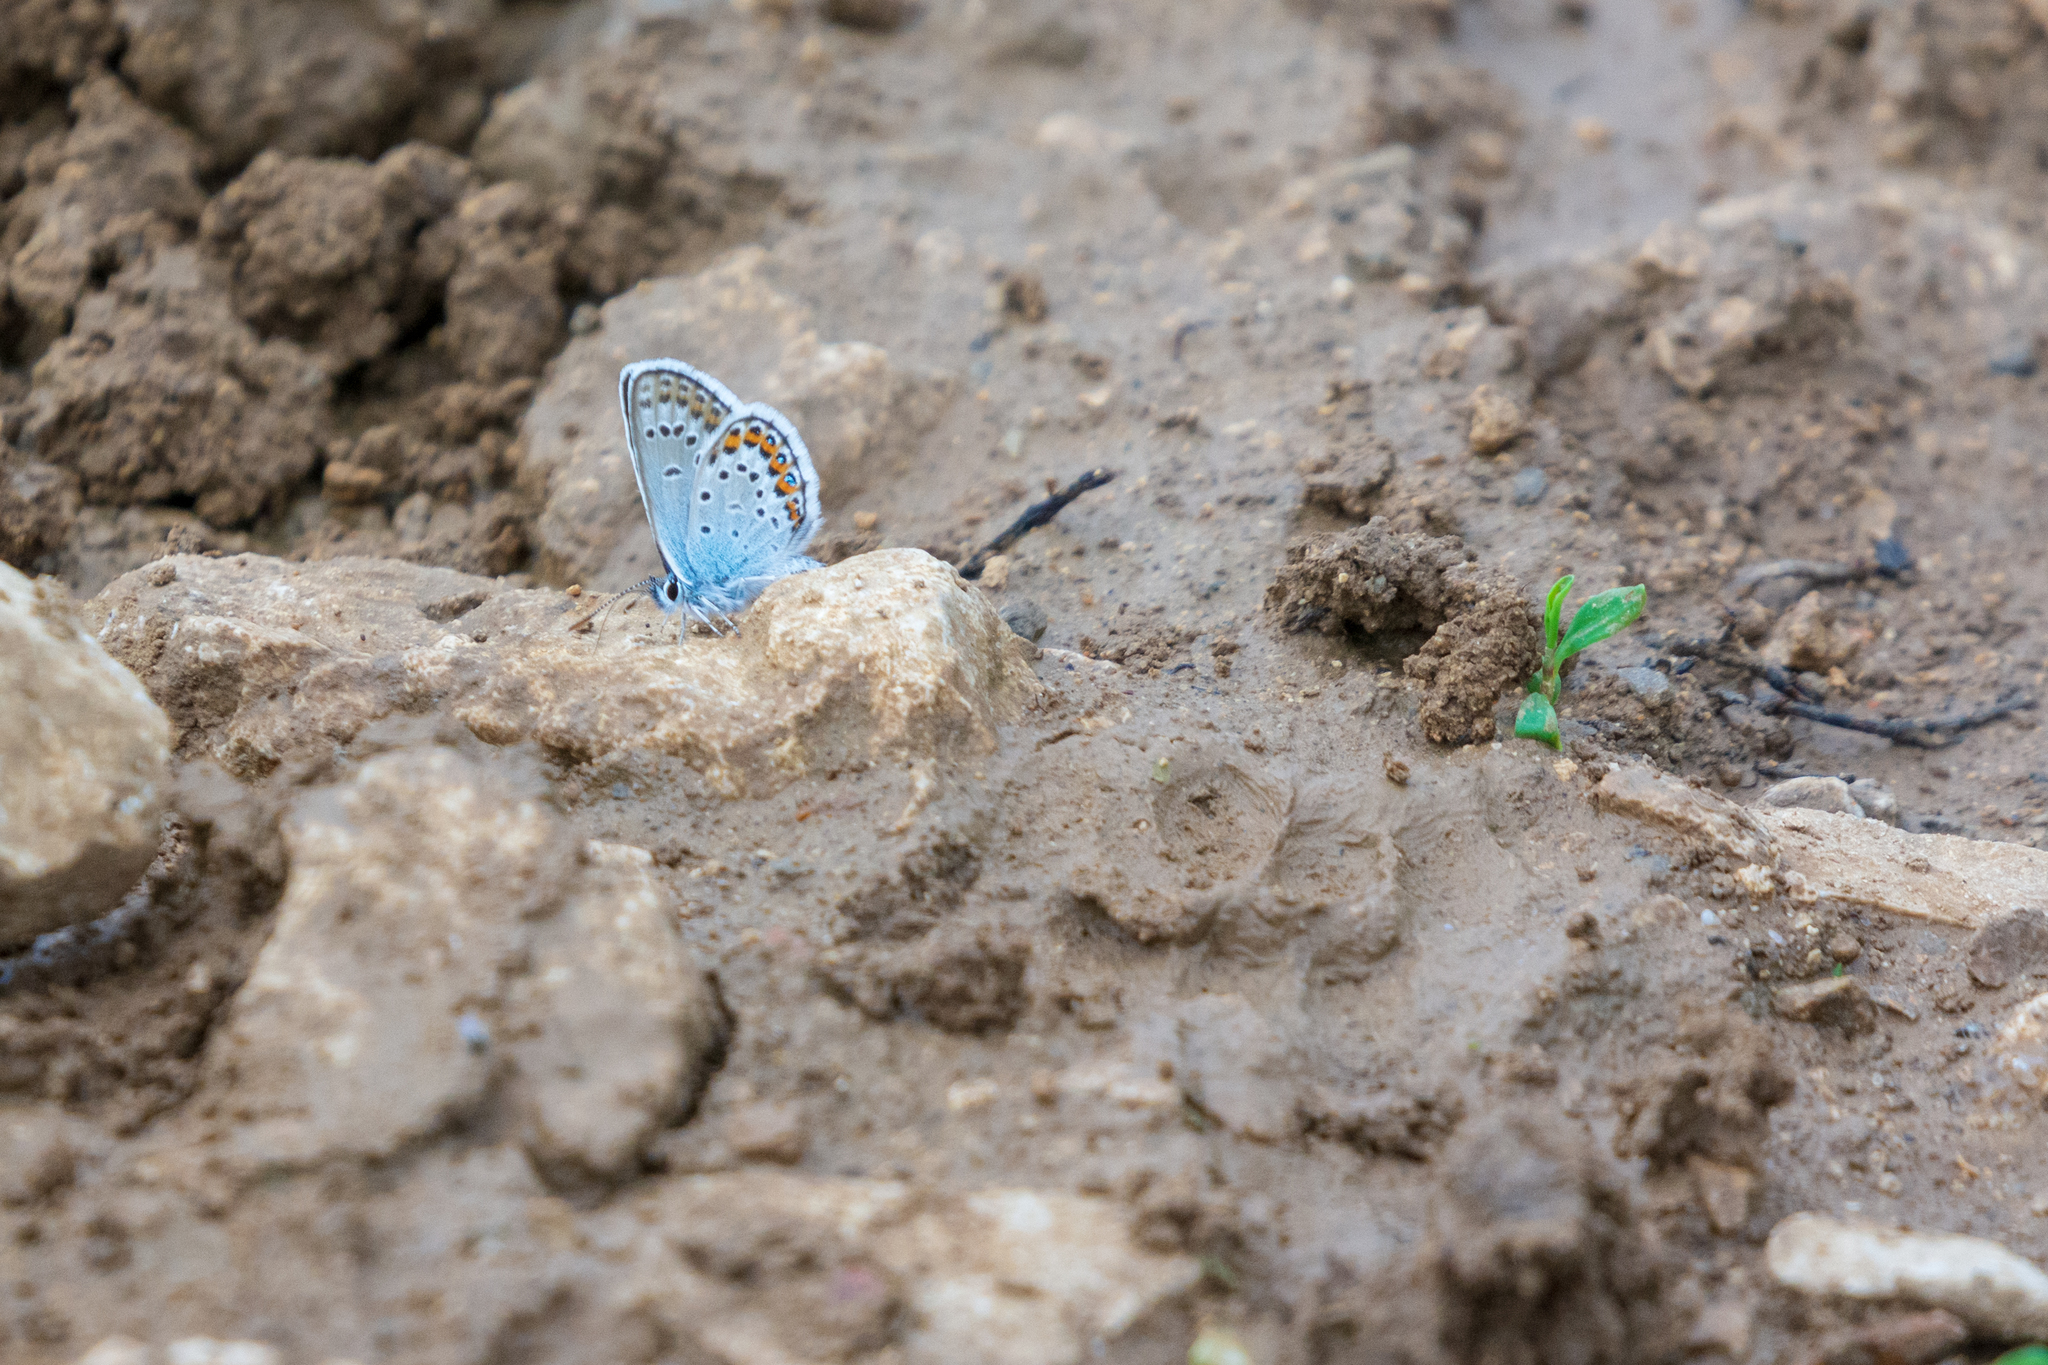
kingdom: Animalia
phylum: Arthropoda
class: Insecta
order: Lepidoptera
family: Lycaenidae
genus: Plebejus
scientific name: Plebejus argus
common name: Silver-studded blue
